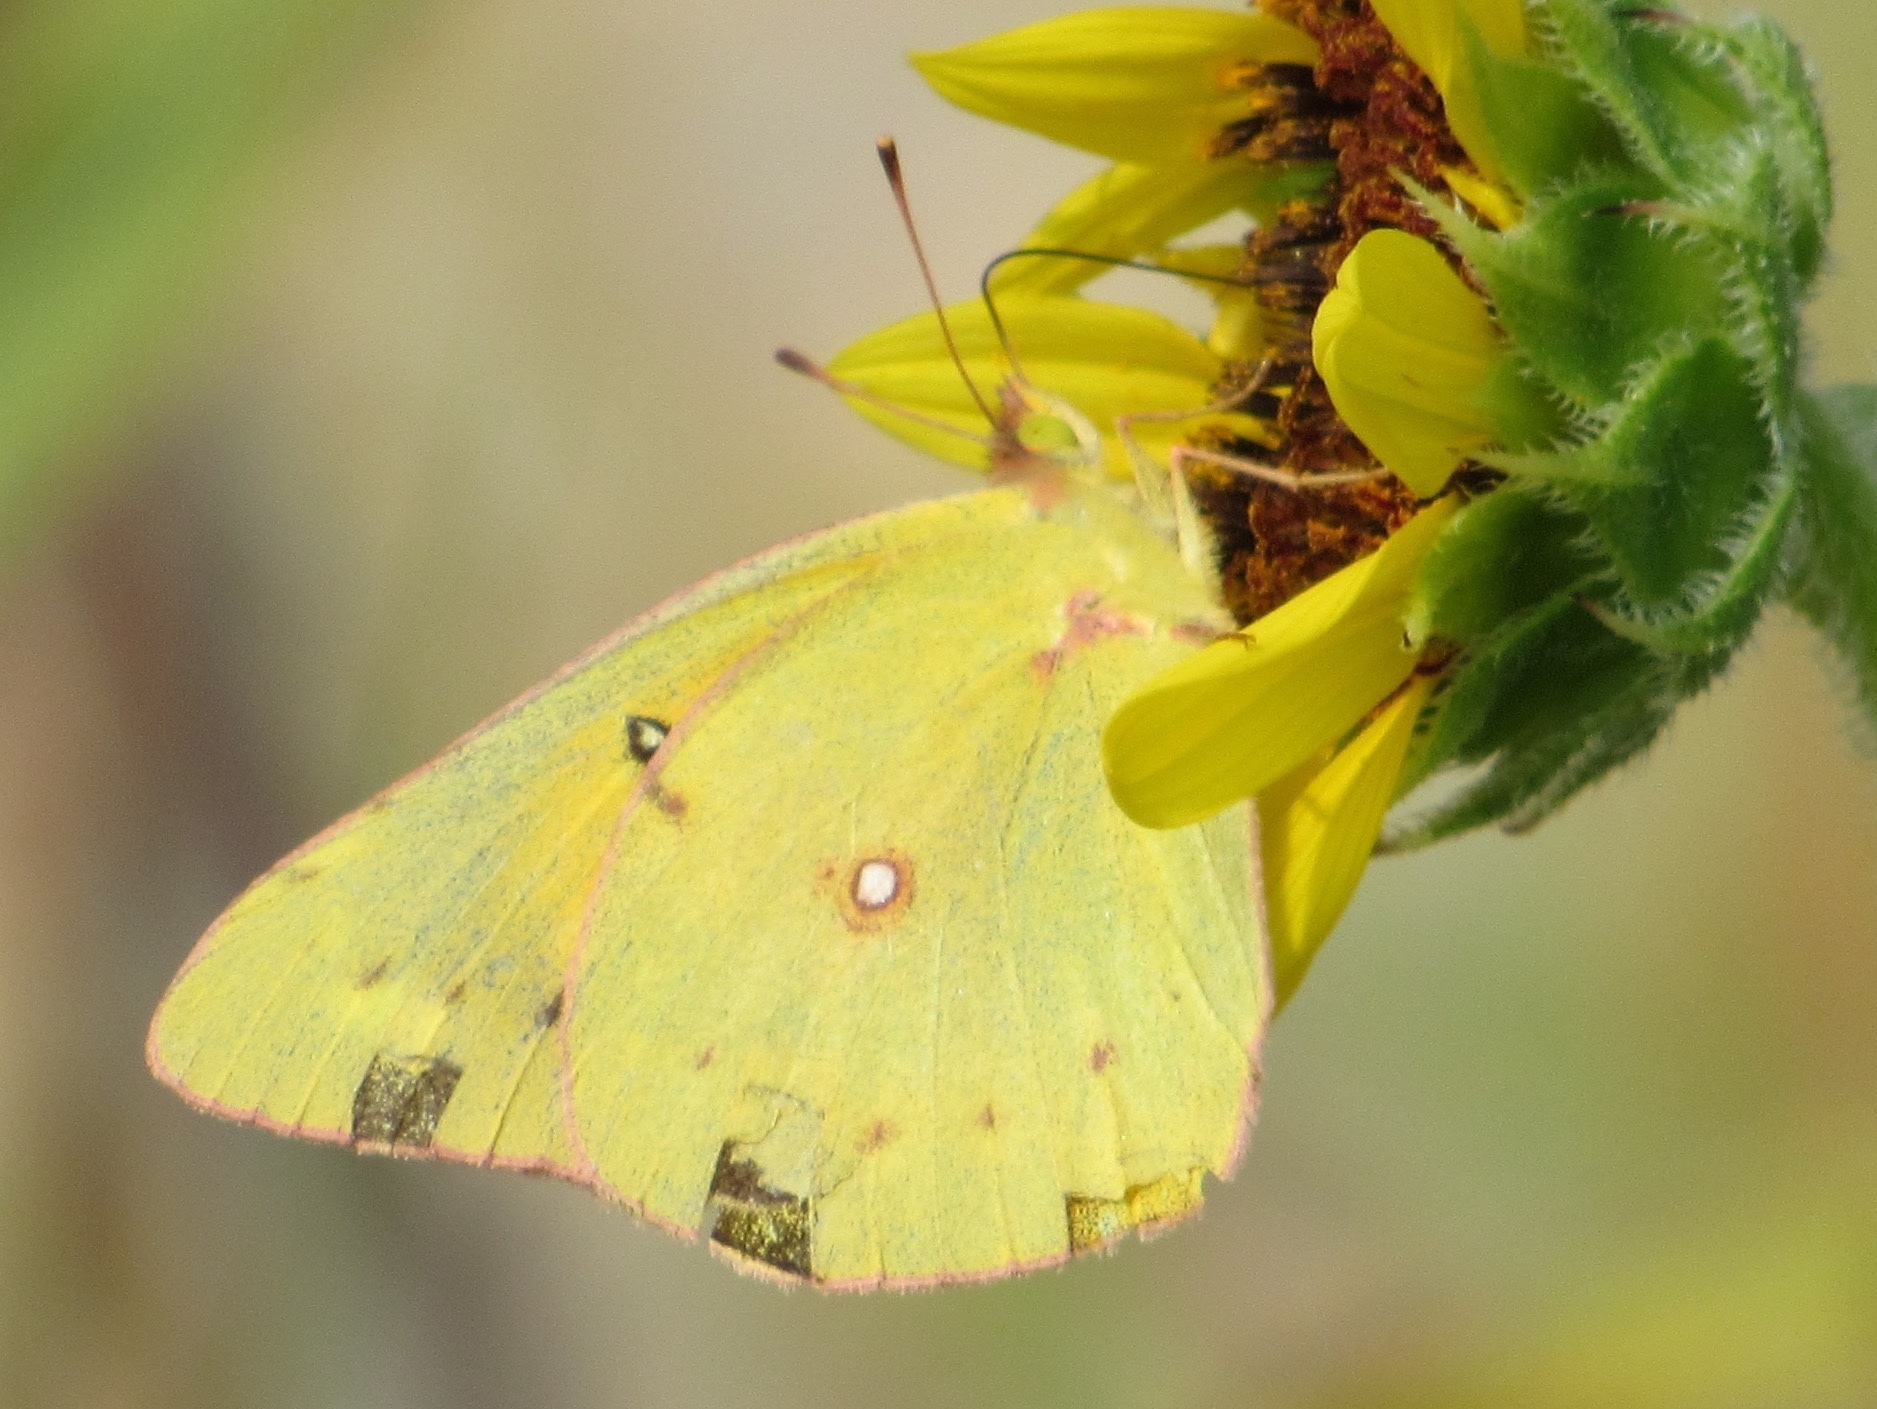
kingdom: Animalia
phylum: Arthropoda
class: Insecta
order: Lepidoptera
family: Pieridae
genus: Colias
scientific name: Colias eurytheme
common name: Alfalfa butterfly
